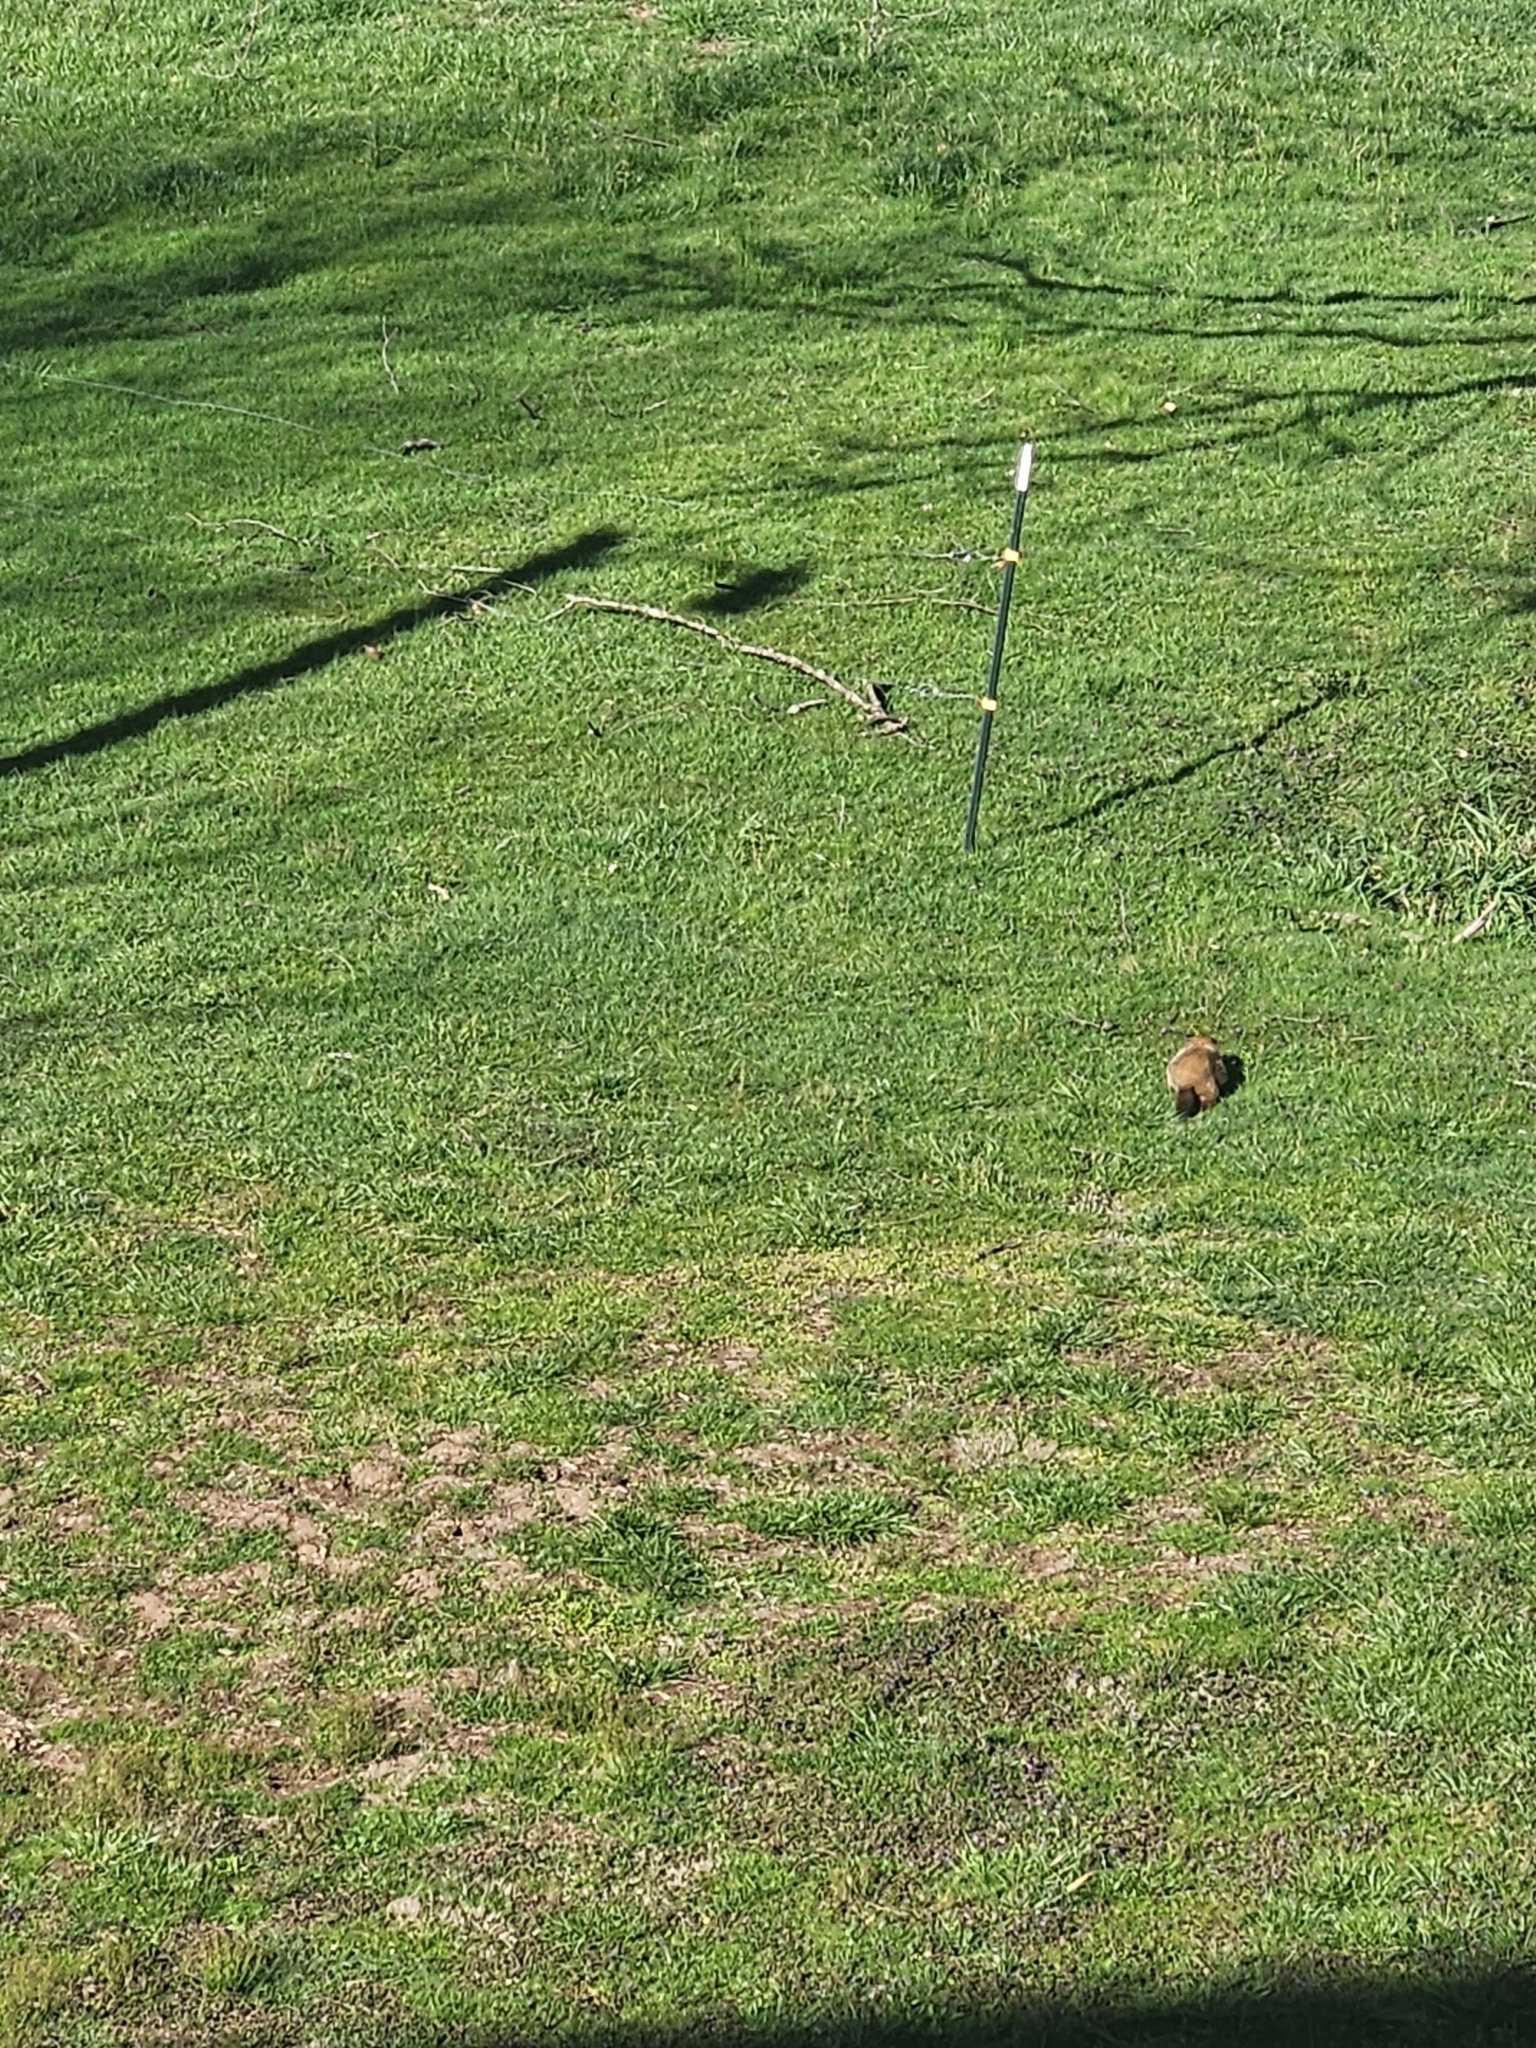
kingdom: Animalia
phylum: Chordata
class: Mammalia
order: Rodentia
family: Sciuridae
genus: Marmota
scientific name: Marmota monax
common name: Groundhog
